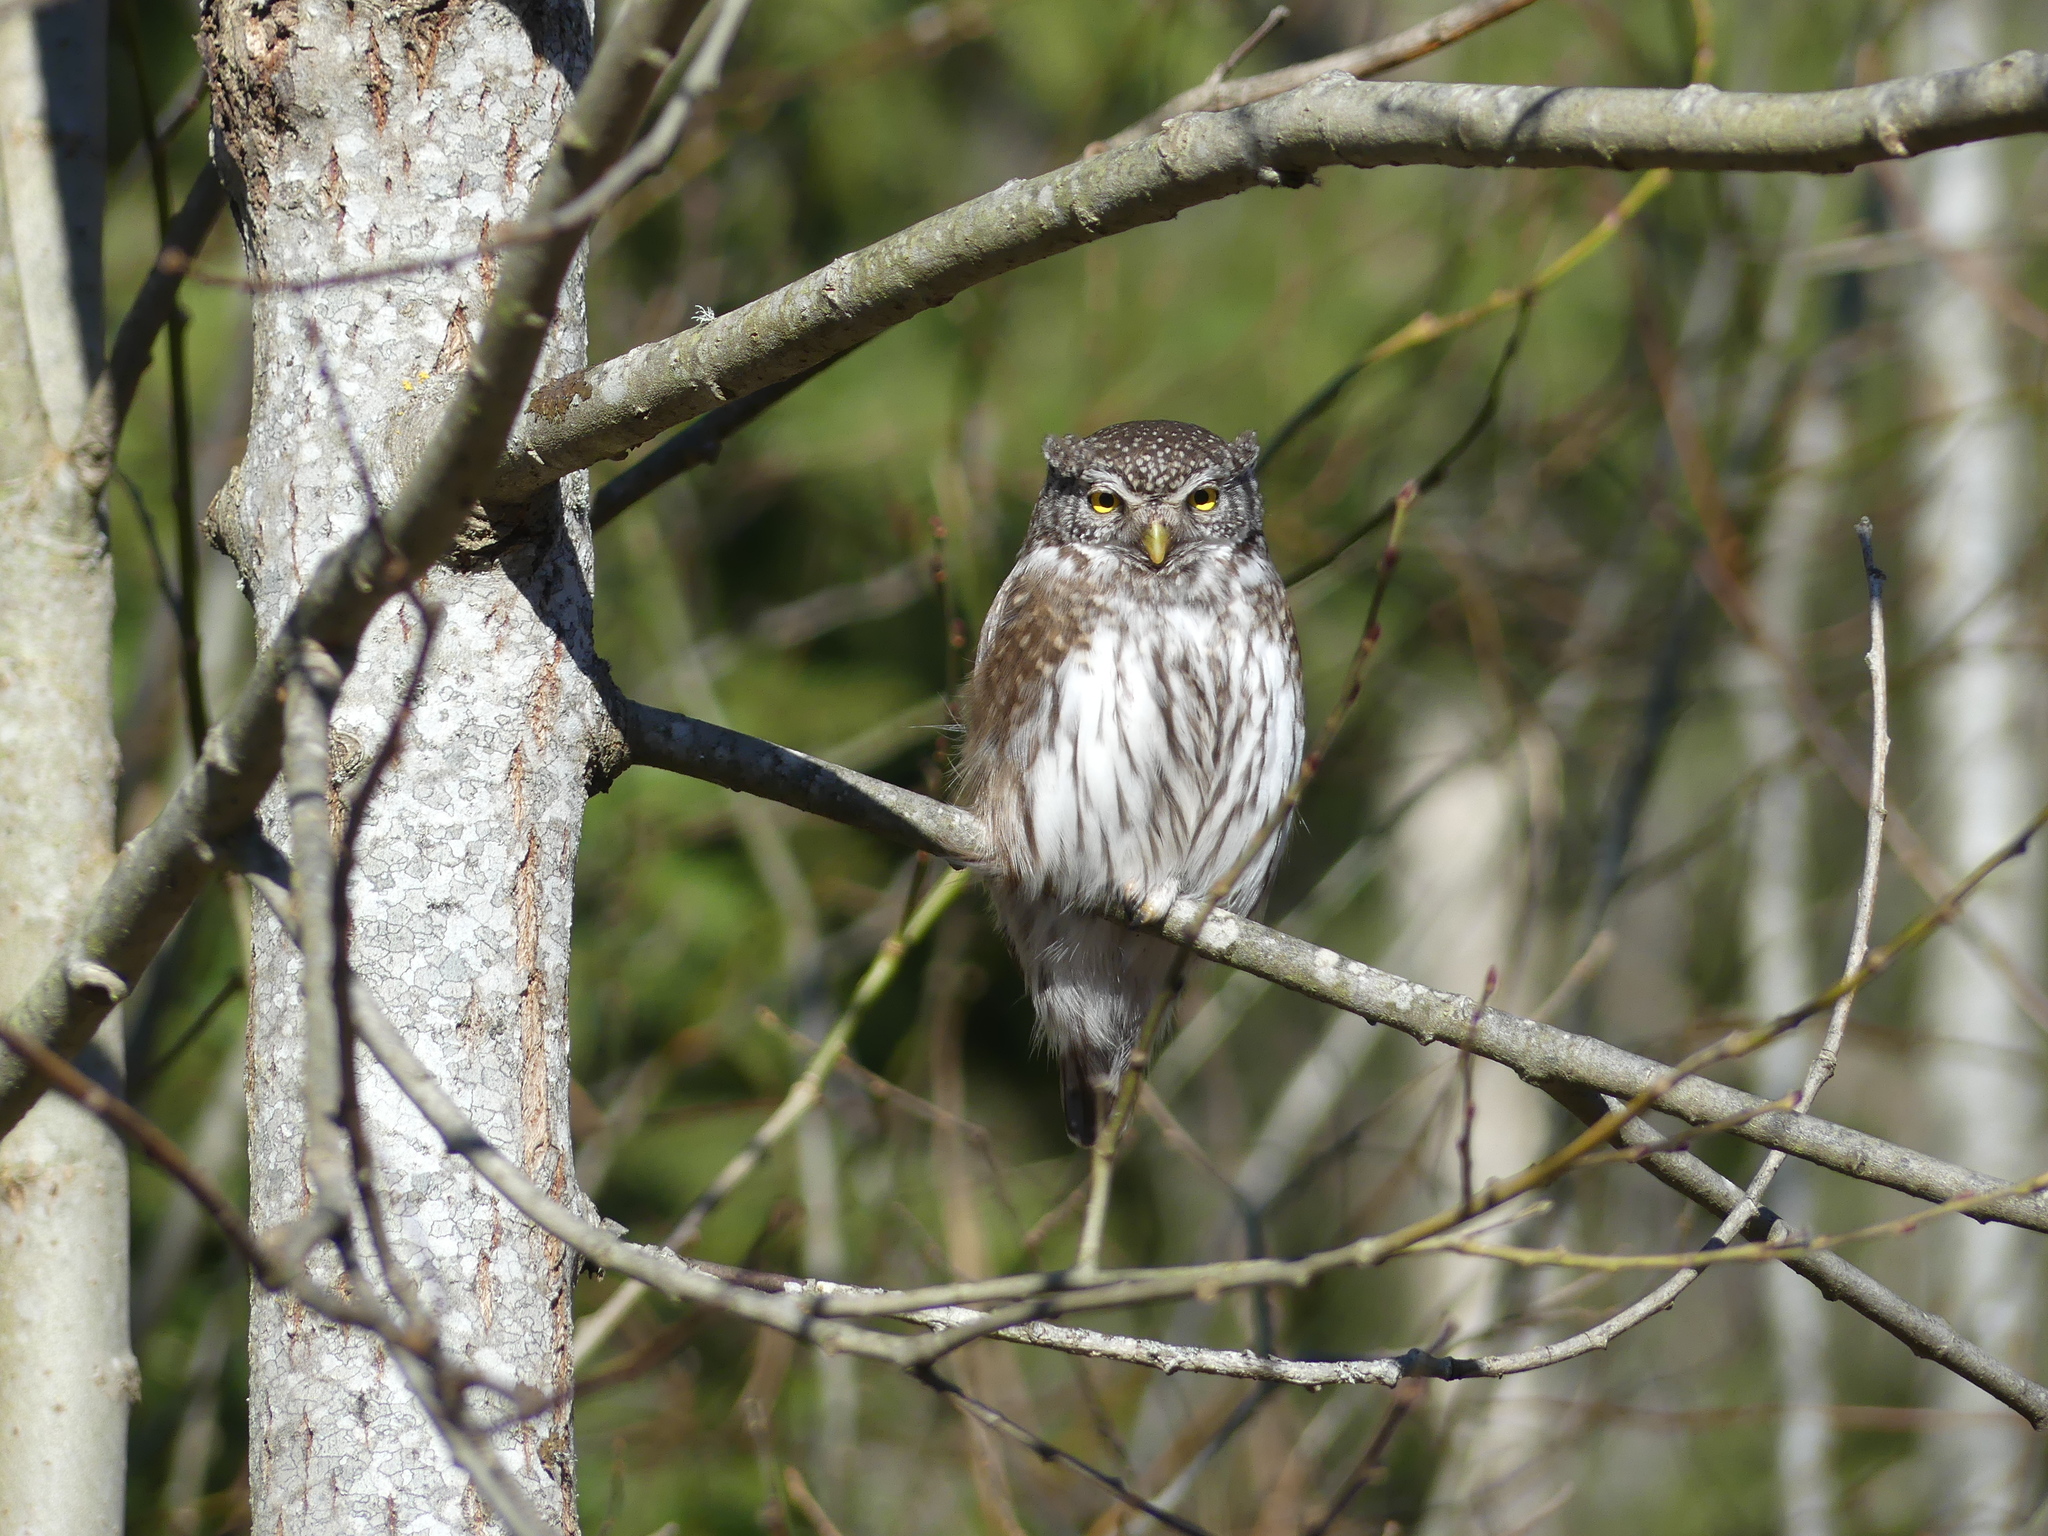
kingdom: Animalia
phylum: Chordata
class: Aves
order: Strigiformes
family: Strigidae
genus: Glaucidium
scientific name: Glaucidium passerinum
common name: Eurasian pygmy owl
